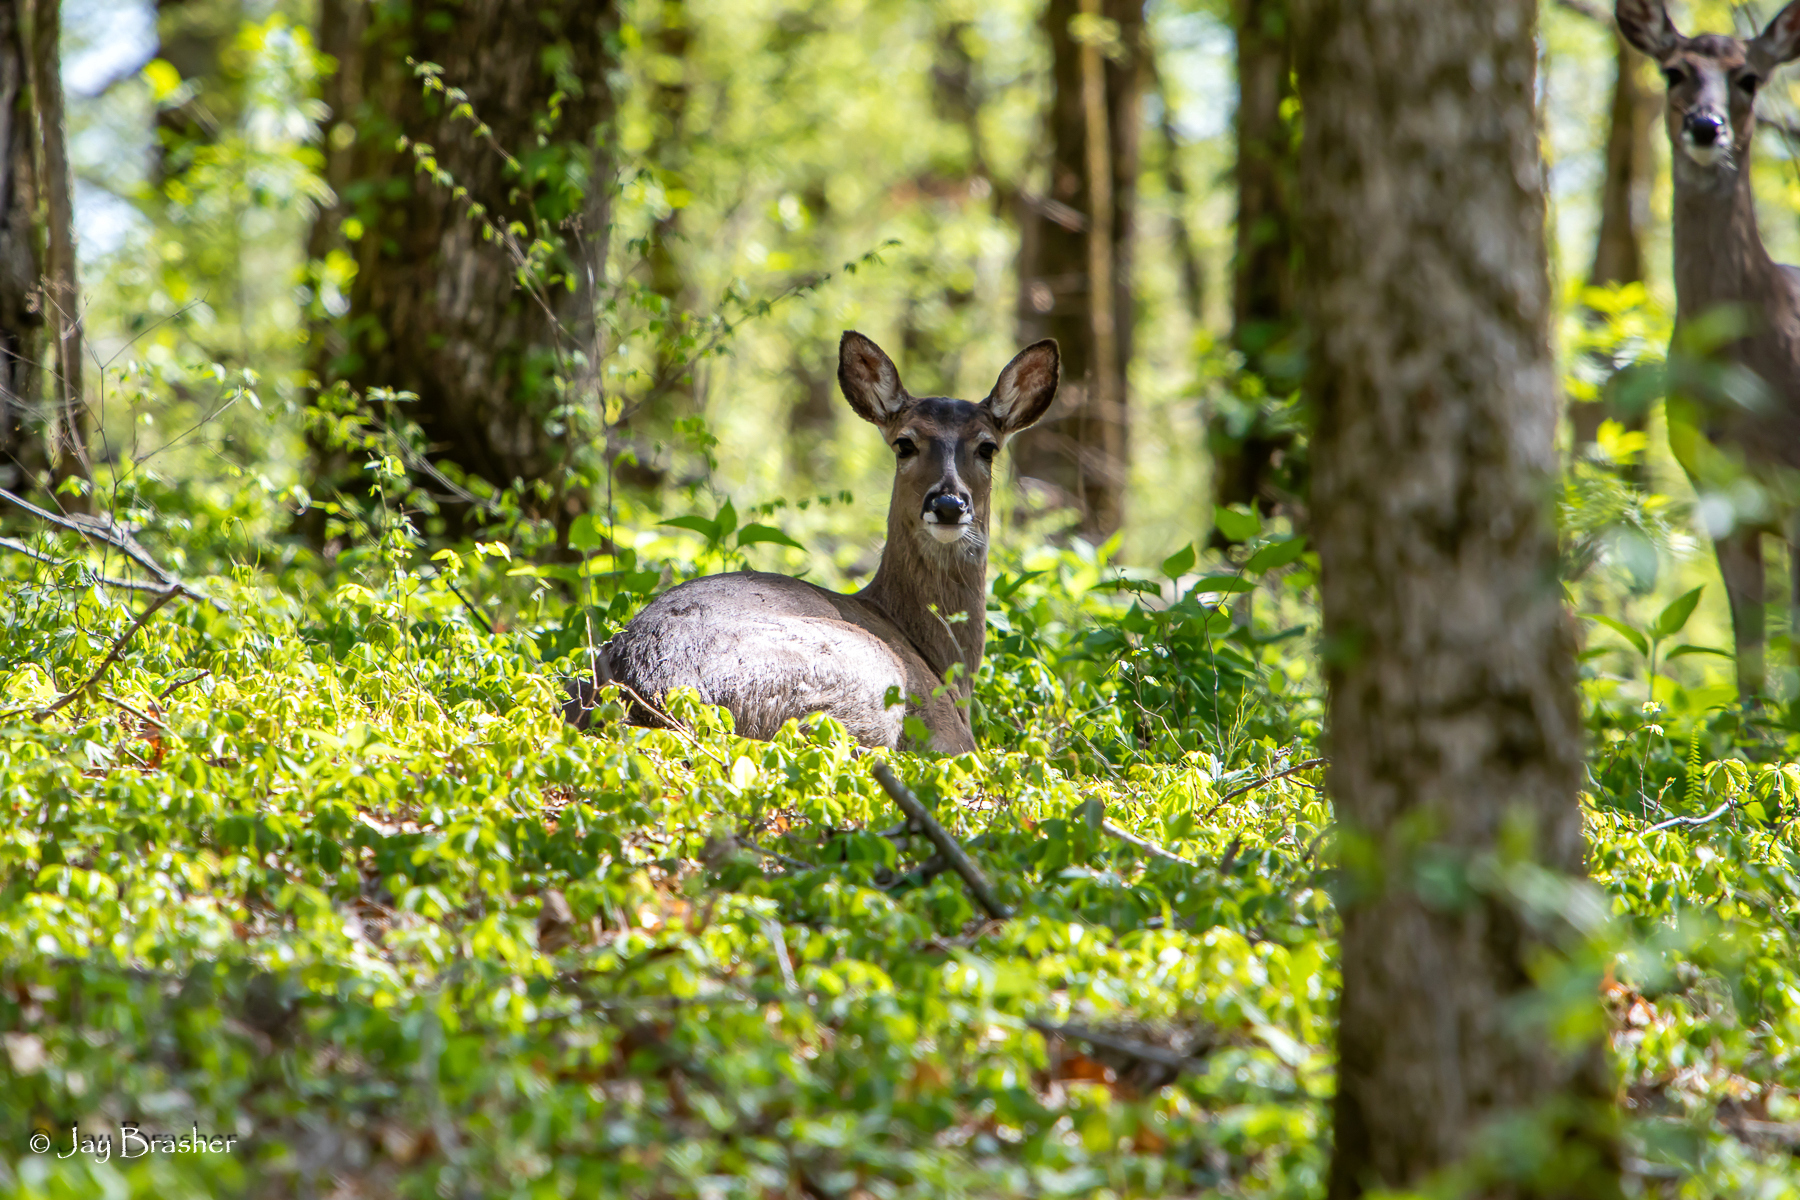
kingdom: Animalia
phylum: Chordata
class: Mammalia
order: Artiodactyla
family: Cervidae
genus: Odocoileus
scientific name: Odocoileus virginianus
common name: White-tailed deer
